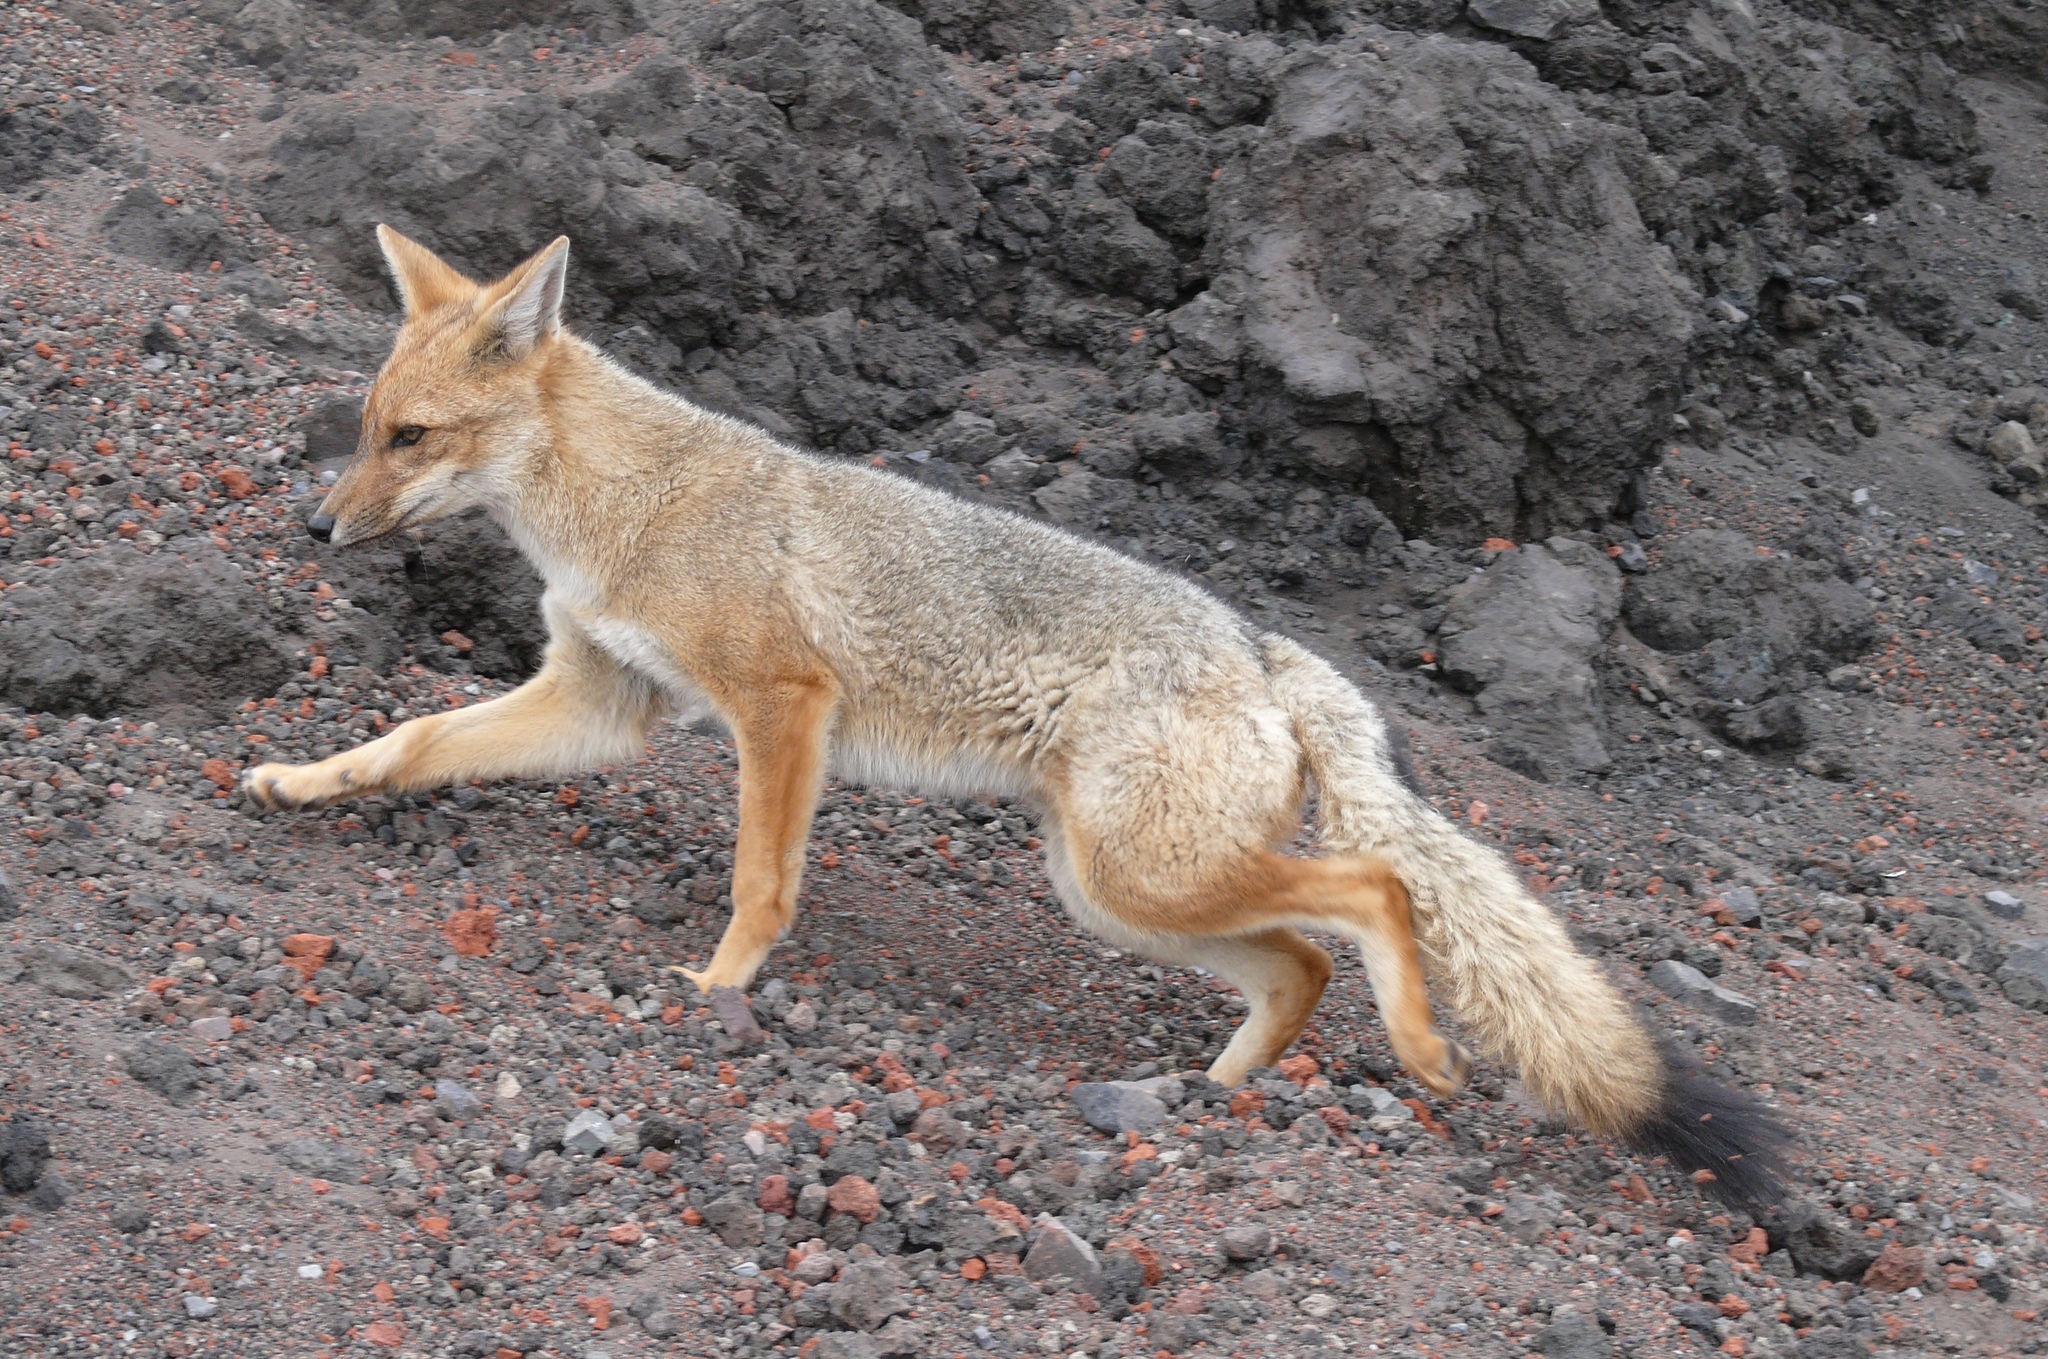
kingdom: Animalia
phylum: Chordata
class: Mammalia
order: Carnivora
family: Canidae
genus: Lycalopex
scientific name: Lycalopex culpaeus
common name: Culpeo
